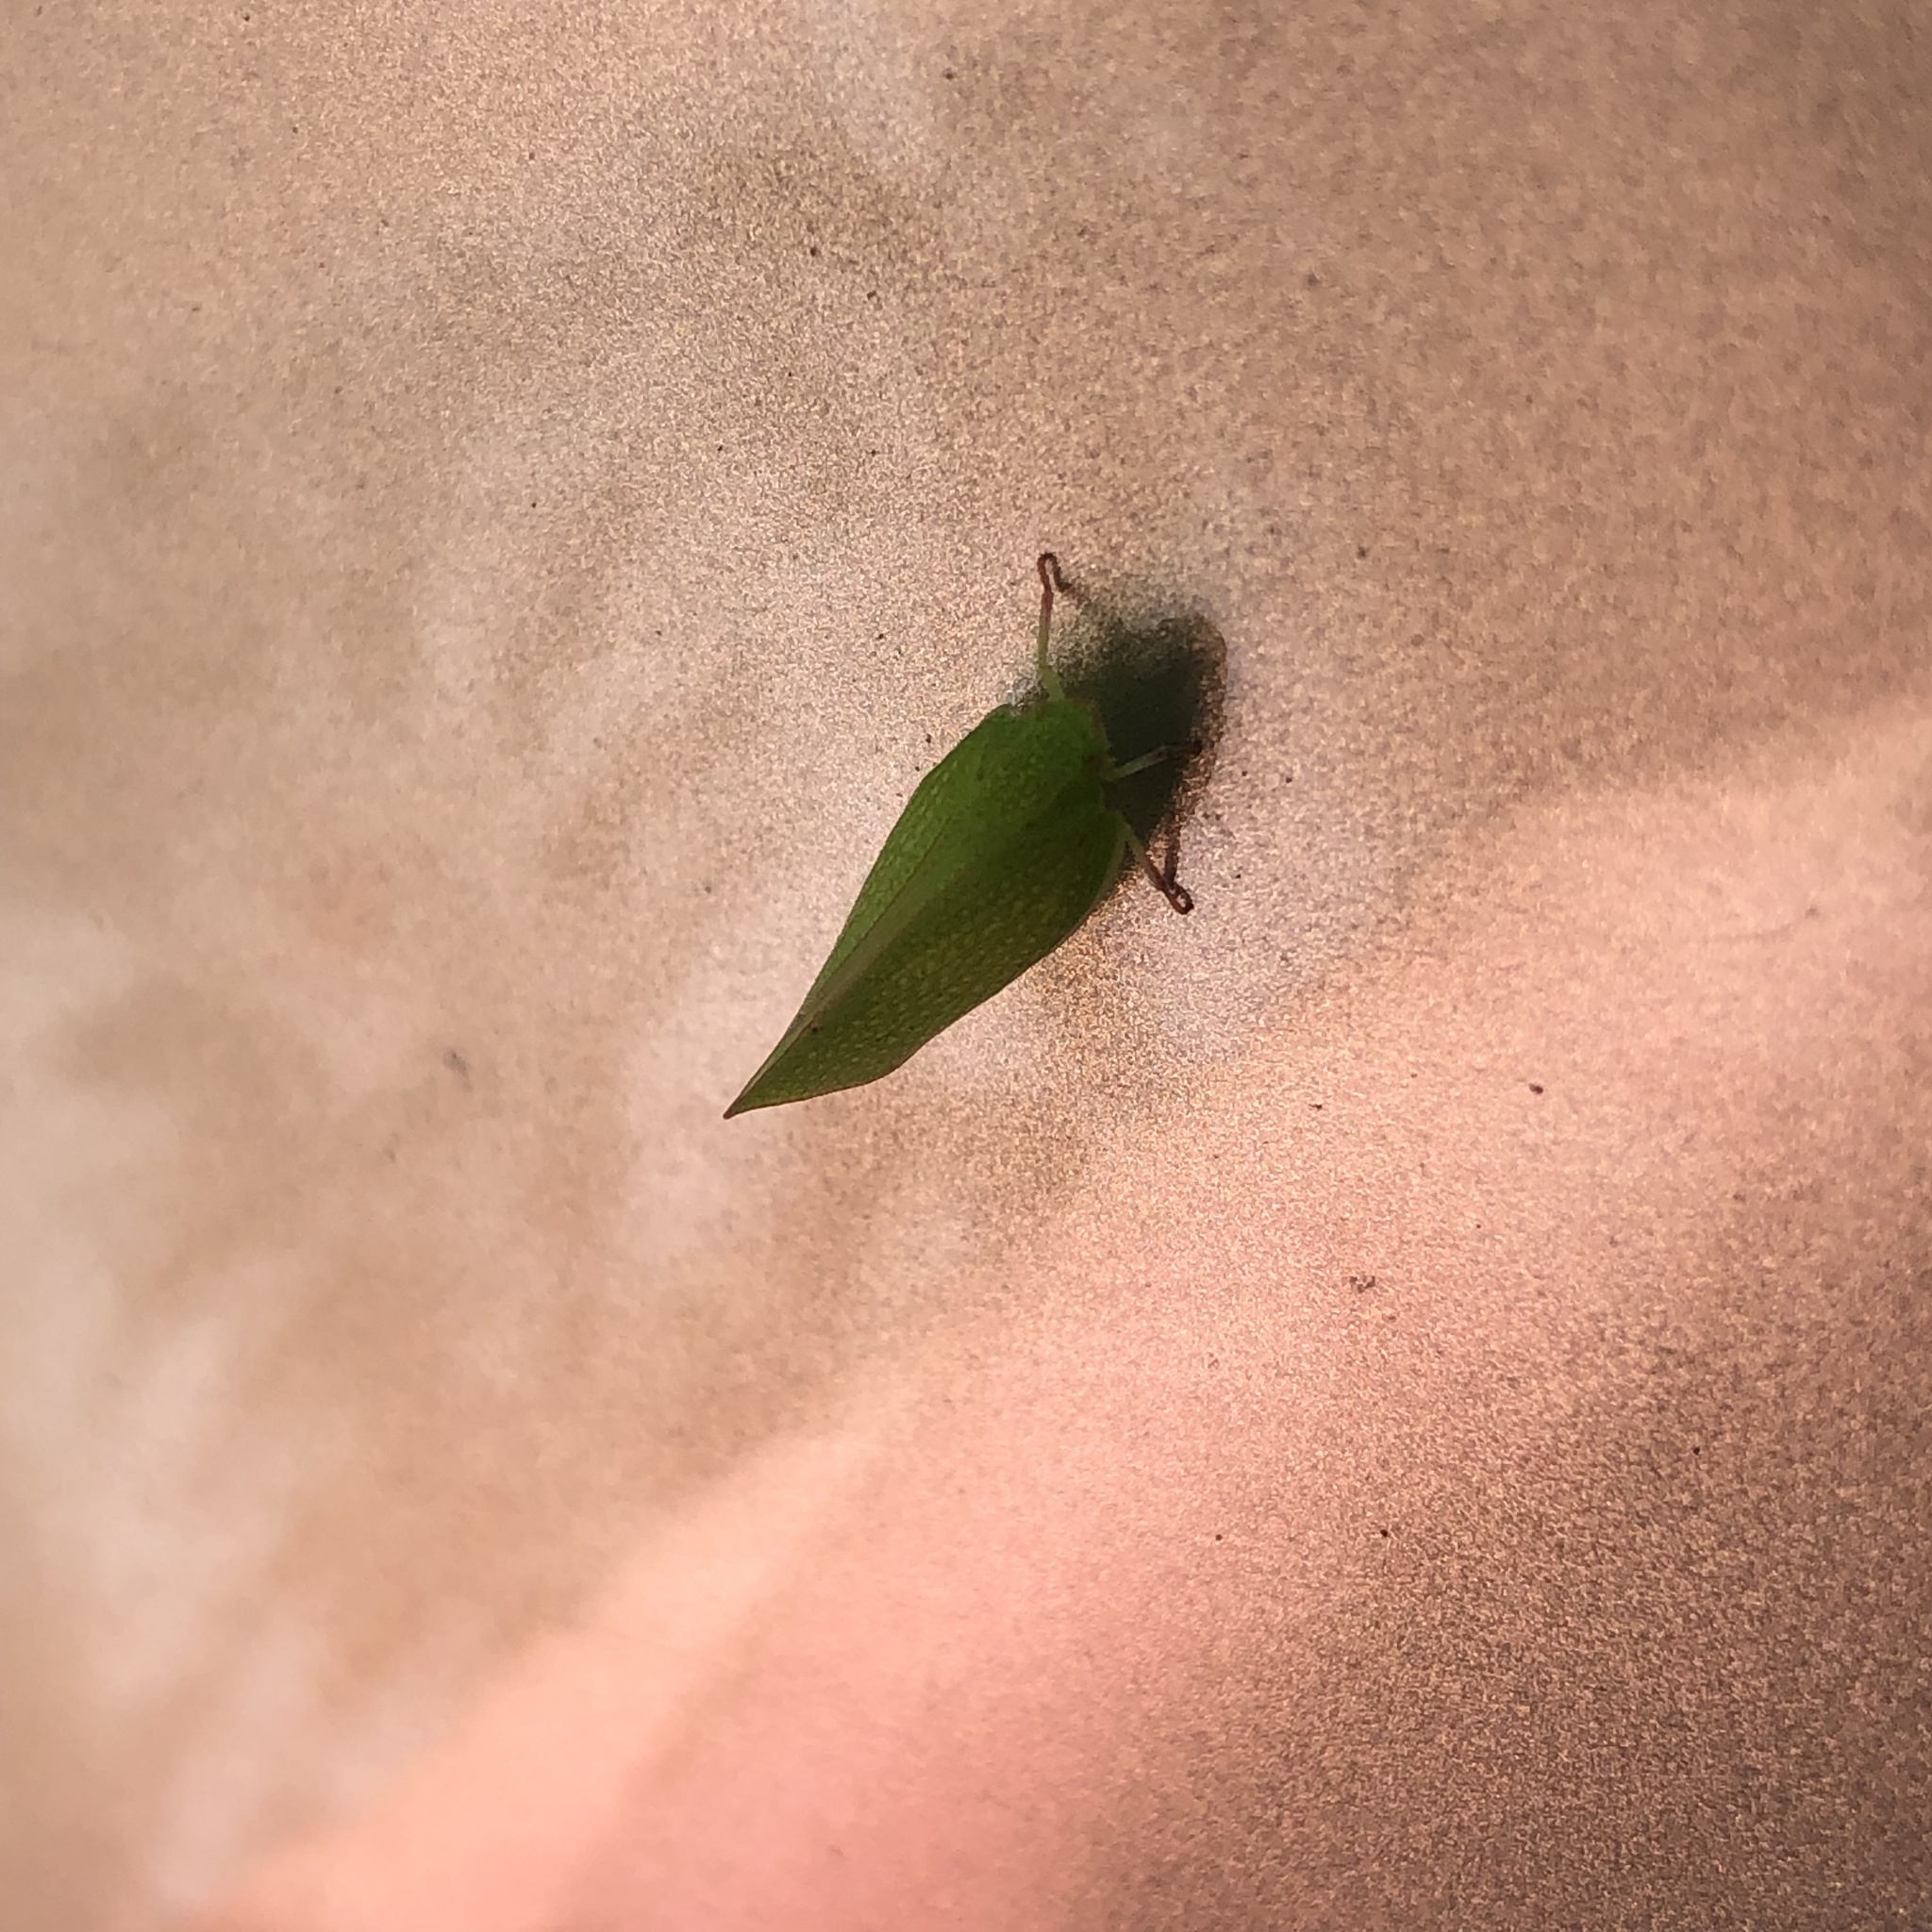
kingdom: Animalia
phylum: Arthropoda
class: Insecta
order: Hemiptera
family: Flatidae
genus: Siphanta
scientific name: Siphanta acuta
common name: Torpedo bug
